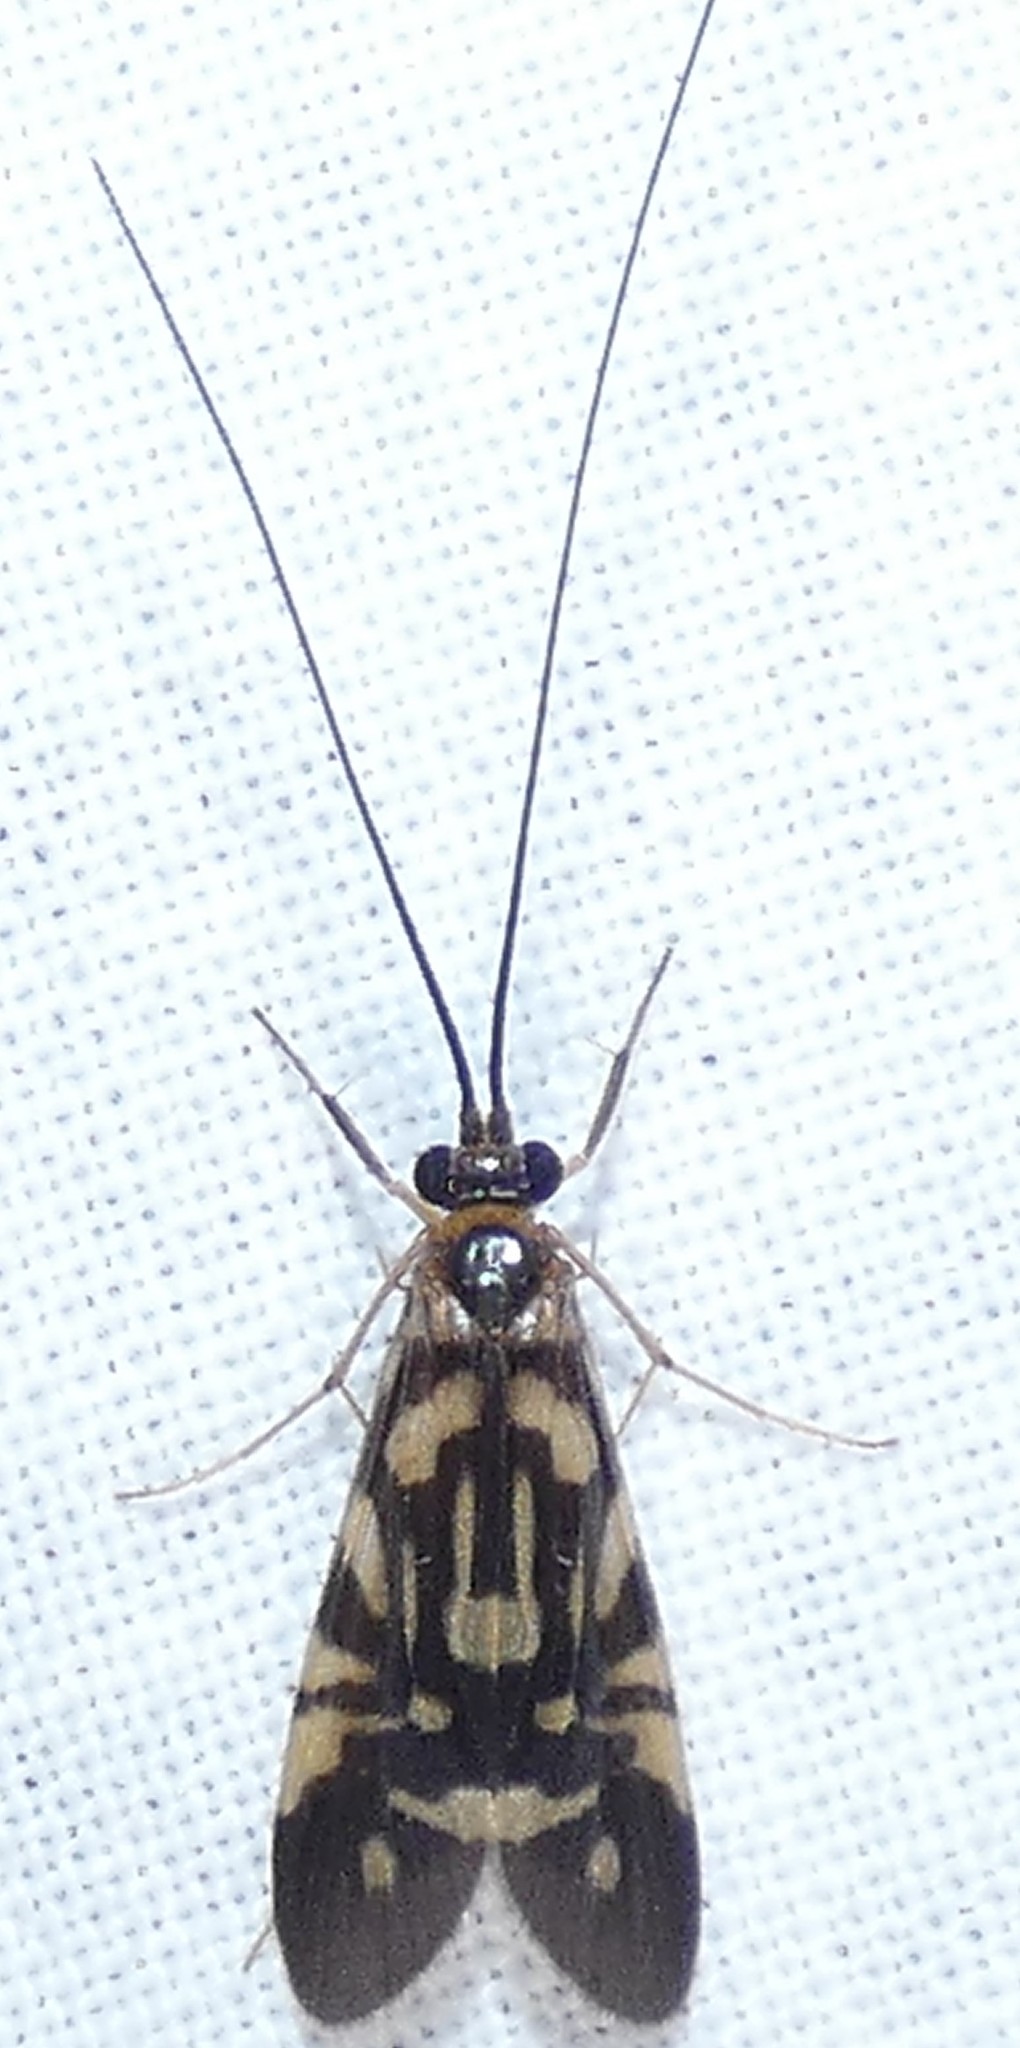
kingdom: Animalia
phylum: Arthropoda
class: Insecta
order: Trichoptera
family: Hydropsychidae
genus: Macrostemum
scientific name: Macrostemum carolina
